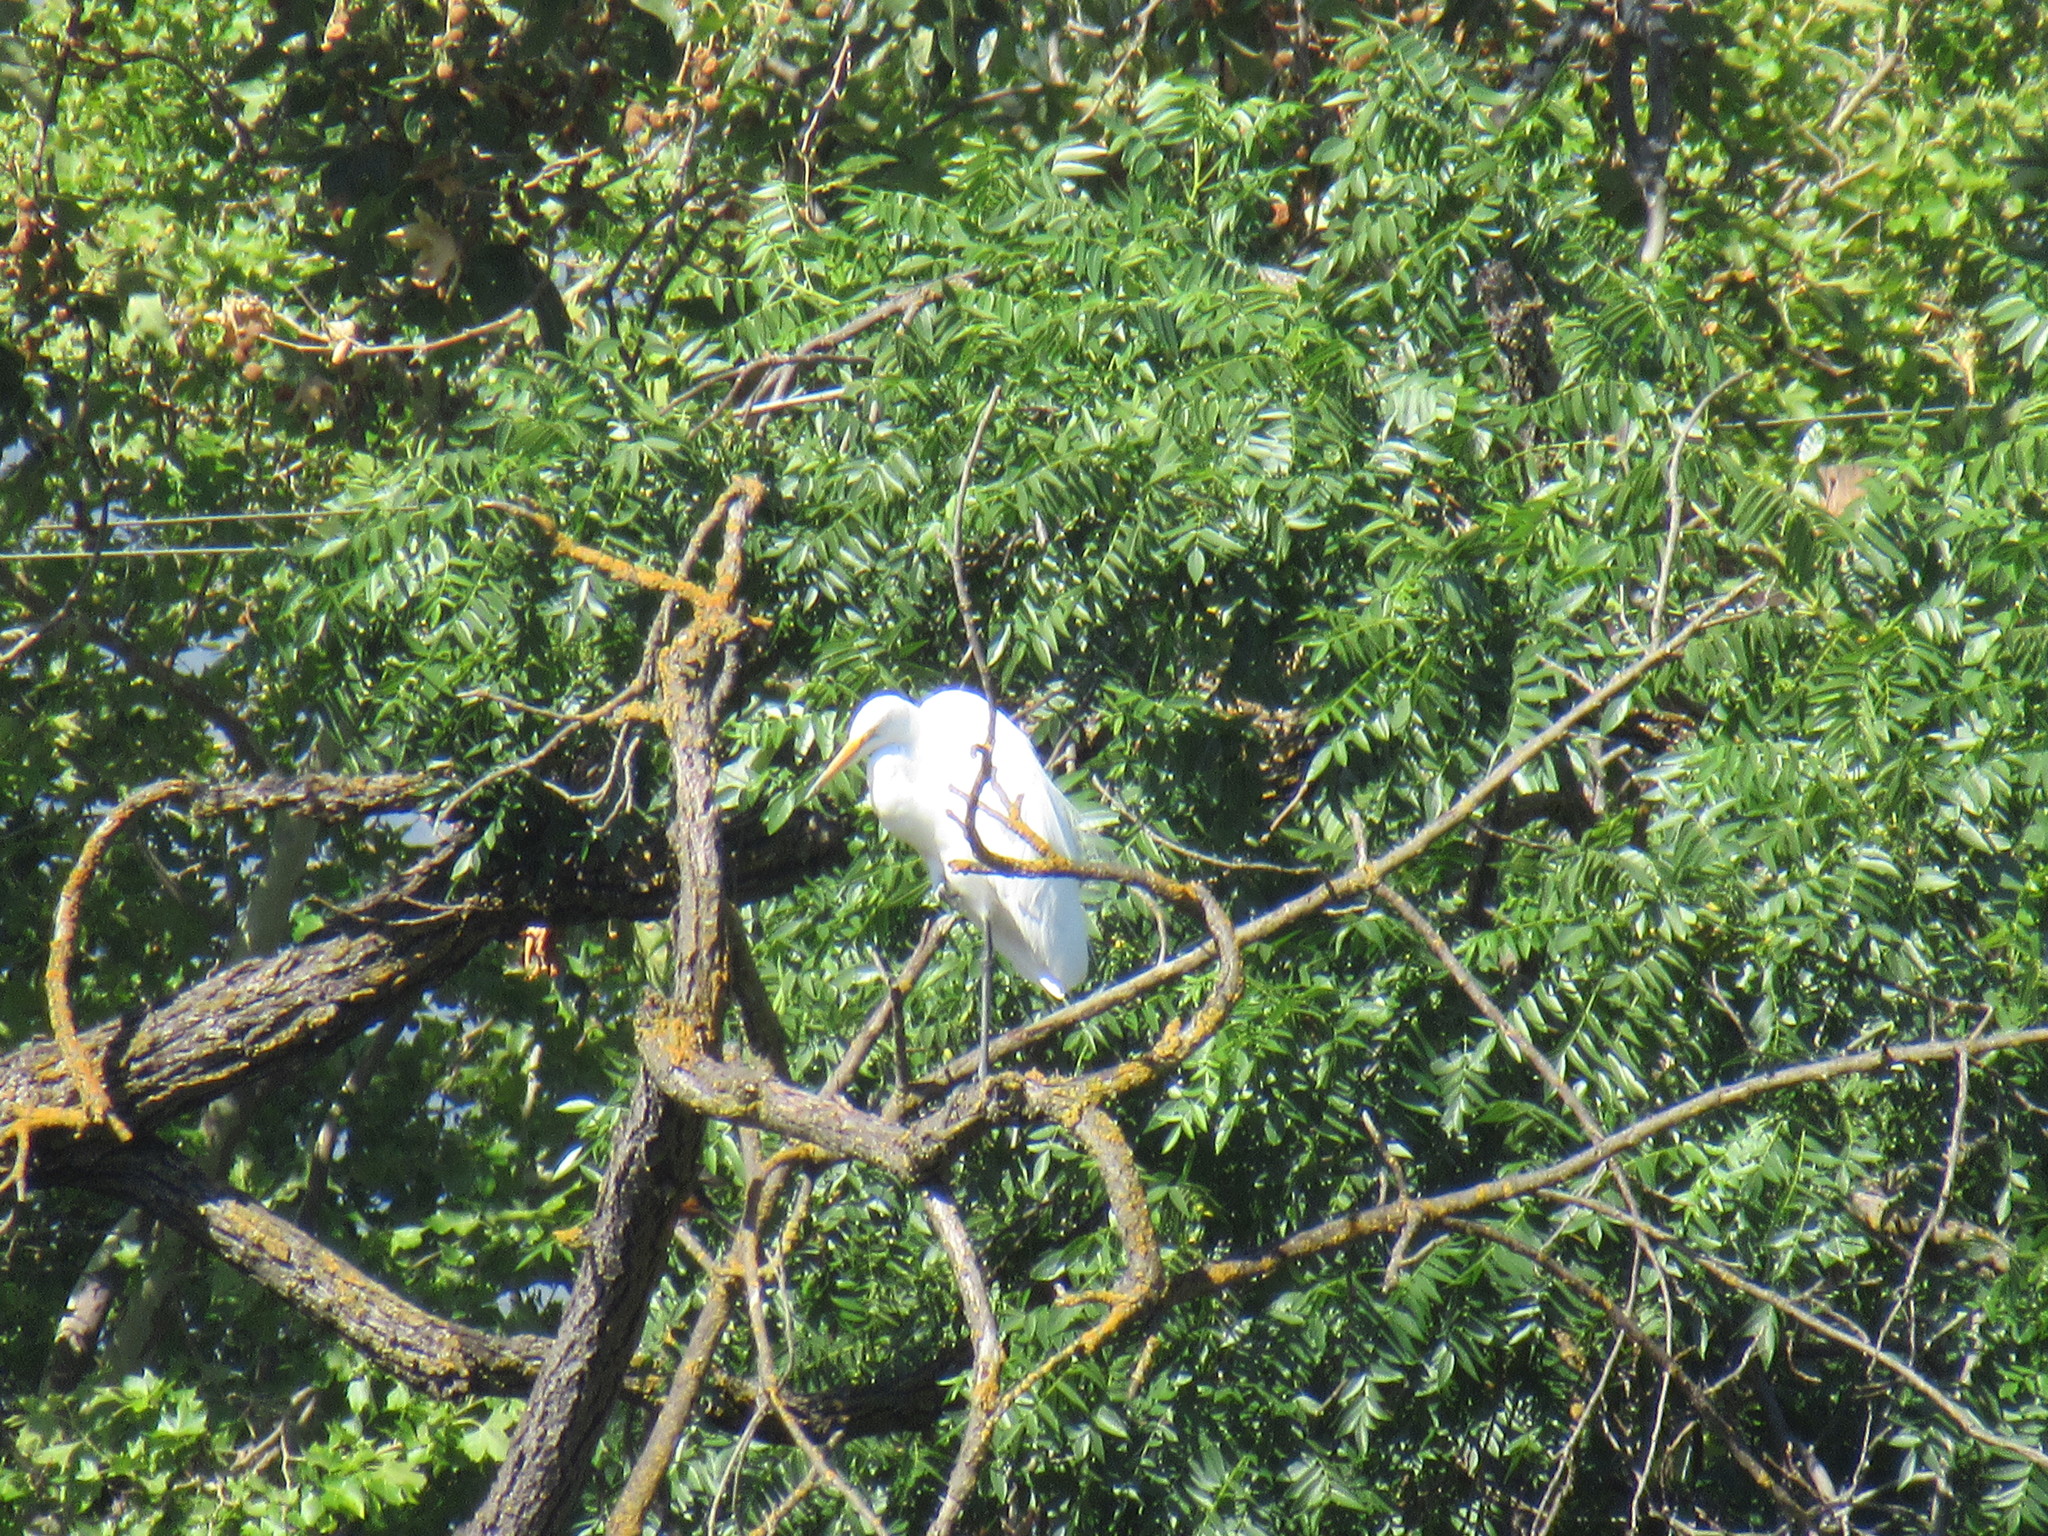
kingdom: Animalia
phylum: Chordata
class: Aves
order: Pelecaniformes
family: Ardeidae
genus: Ardea
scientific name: Ardea alba
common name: Great egret
